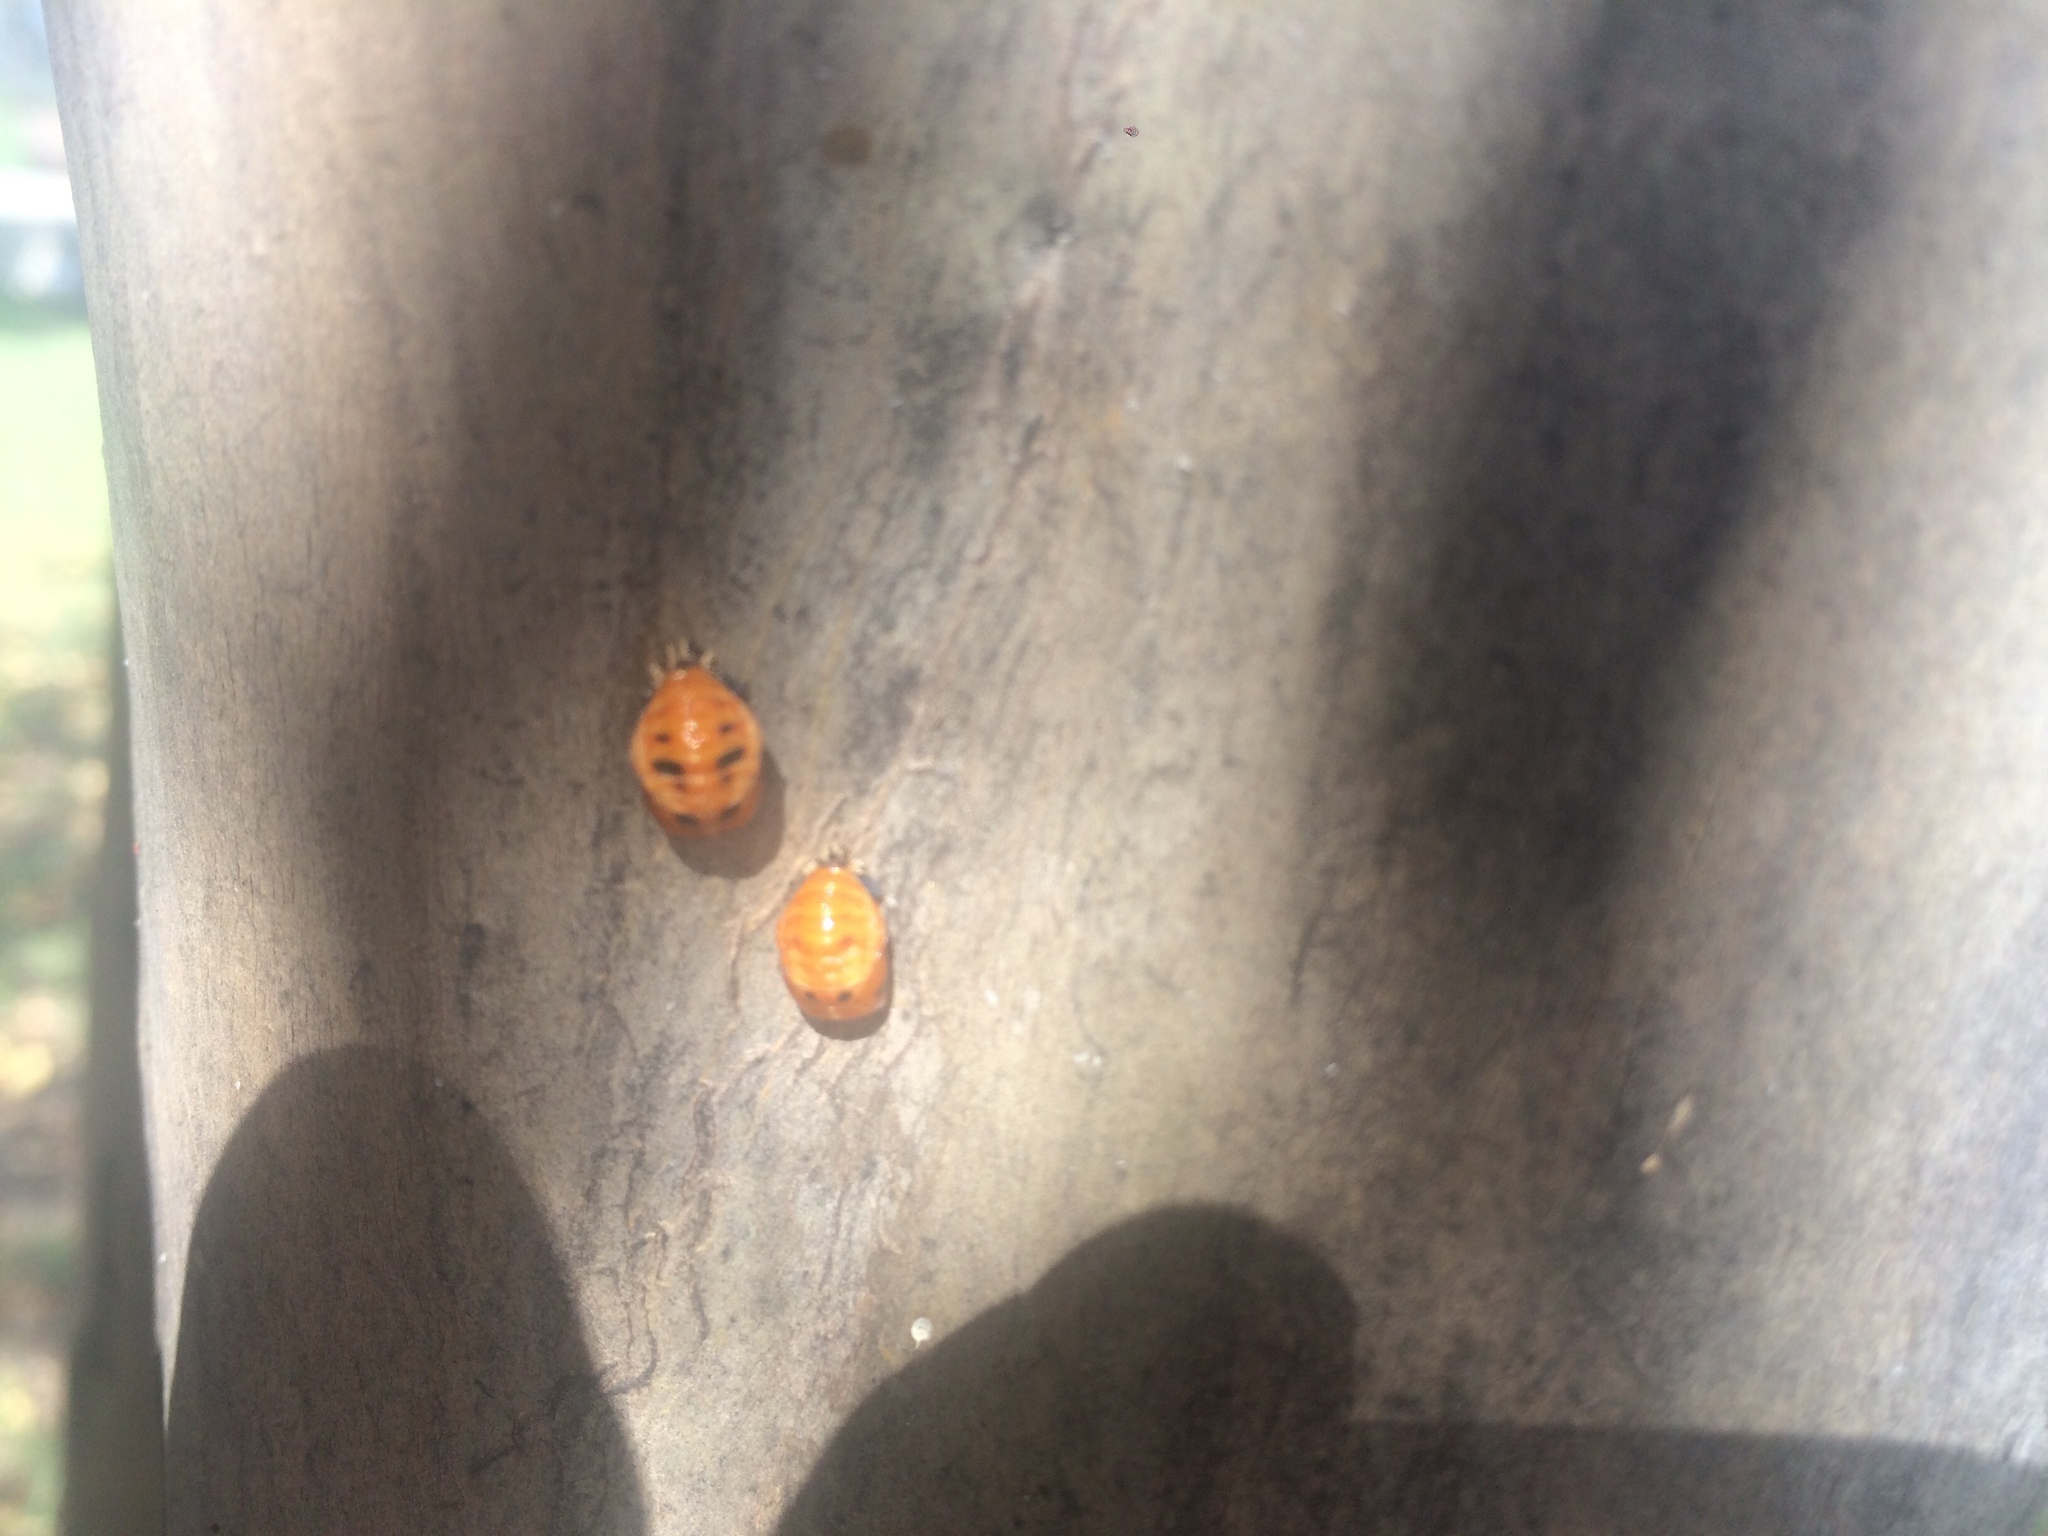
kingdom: Animalia
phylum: Arthropoda
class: Insecta
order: Coleoptera
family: Coccinellidae
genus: Harmonia
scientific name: Harmonia axyridis
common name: Harlequin ladybird
